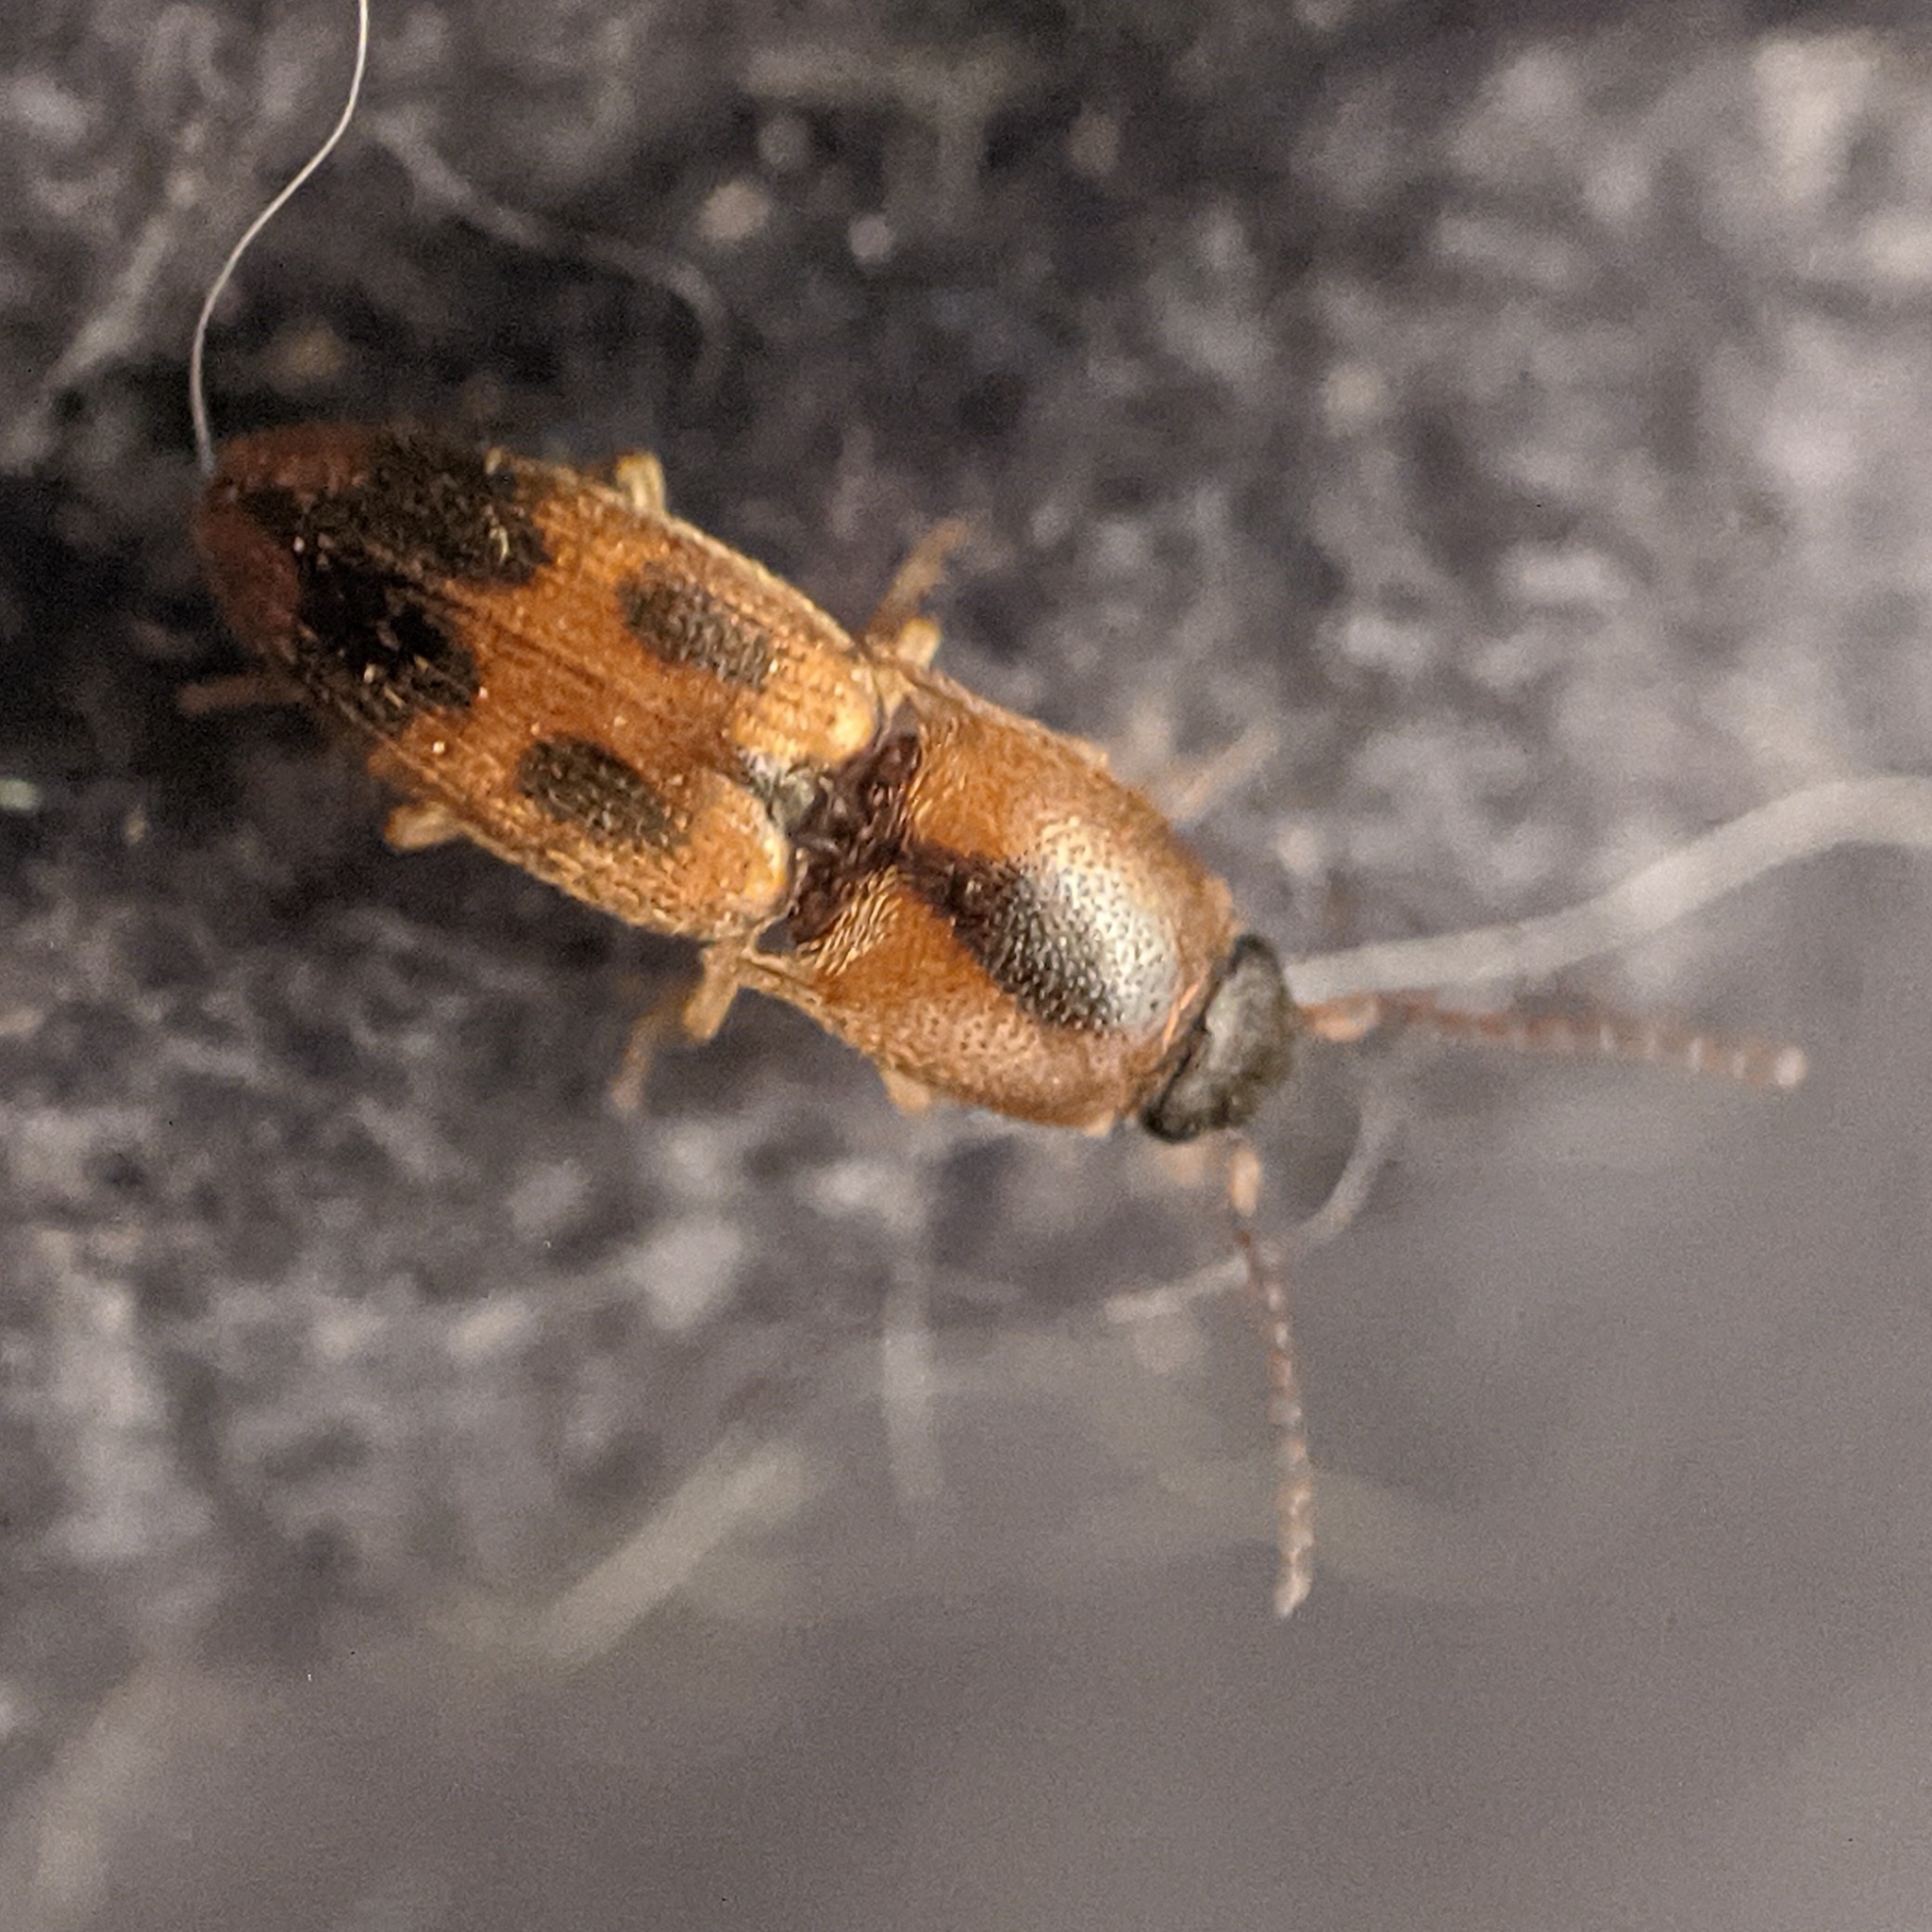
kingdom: Animalia
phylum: Arthropoda
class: Insecta
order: Coleoptera
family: Elateridae
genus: Aeolus
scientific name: Aeolus mellillus
